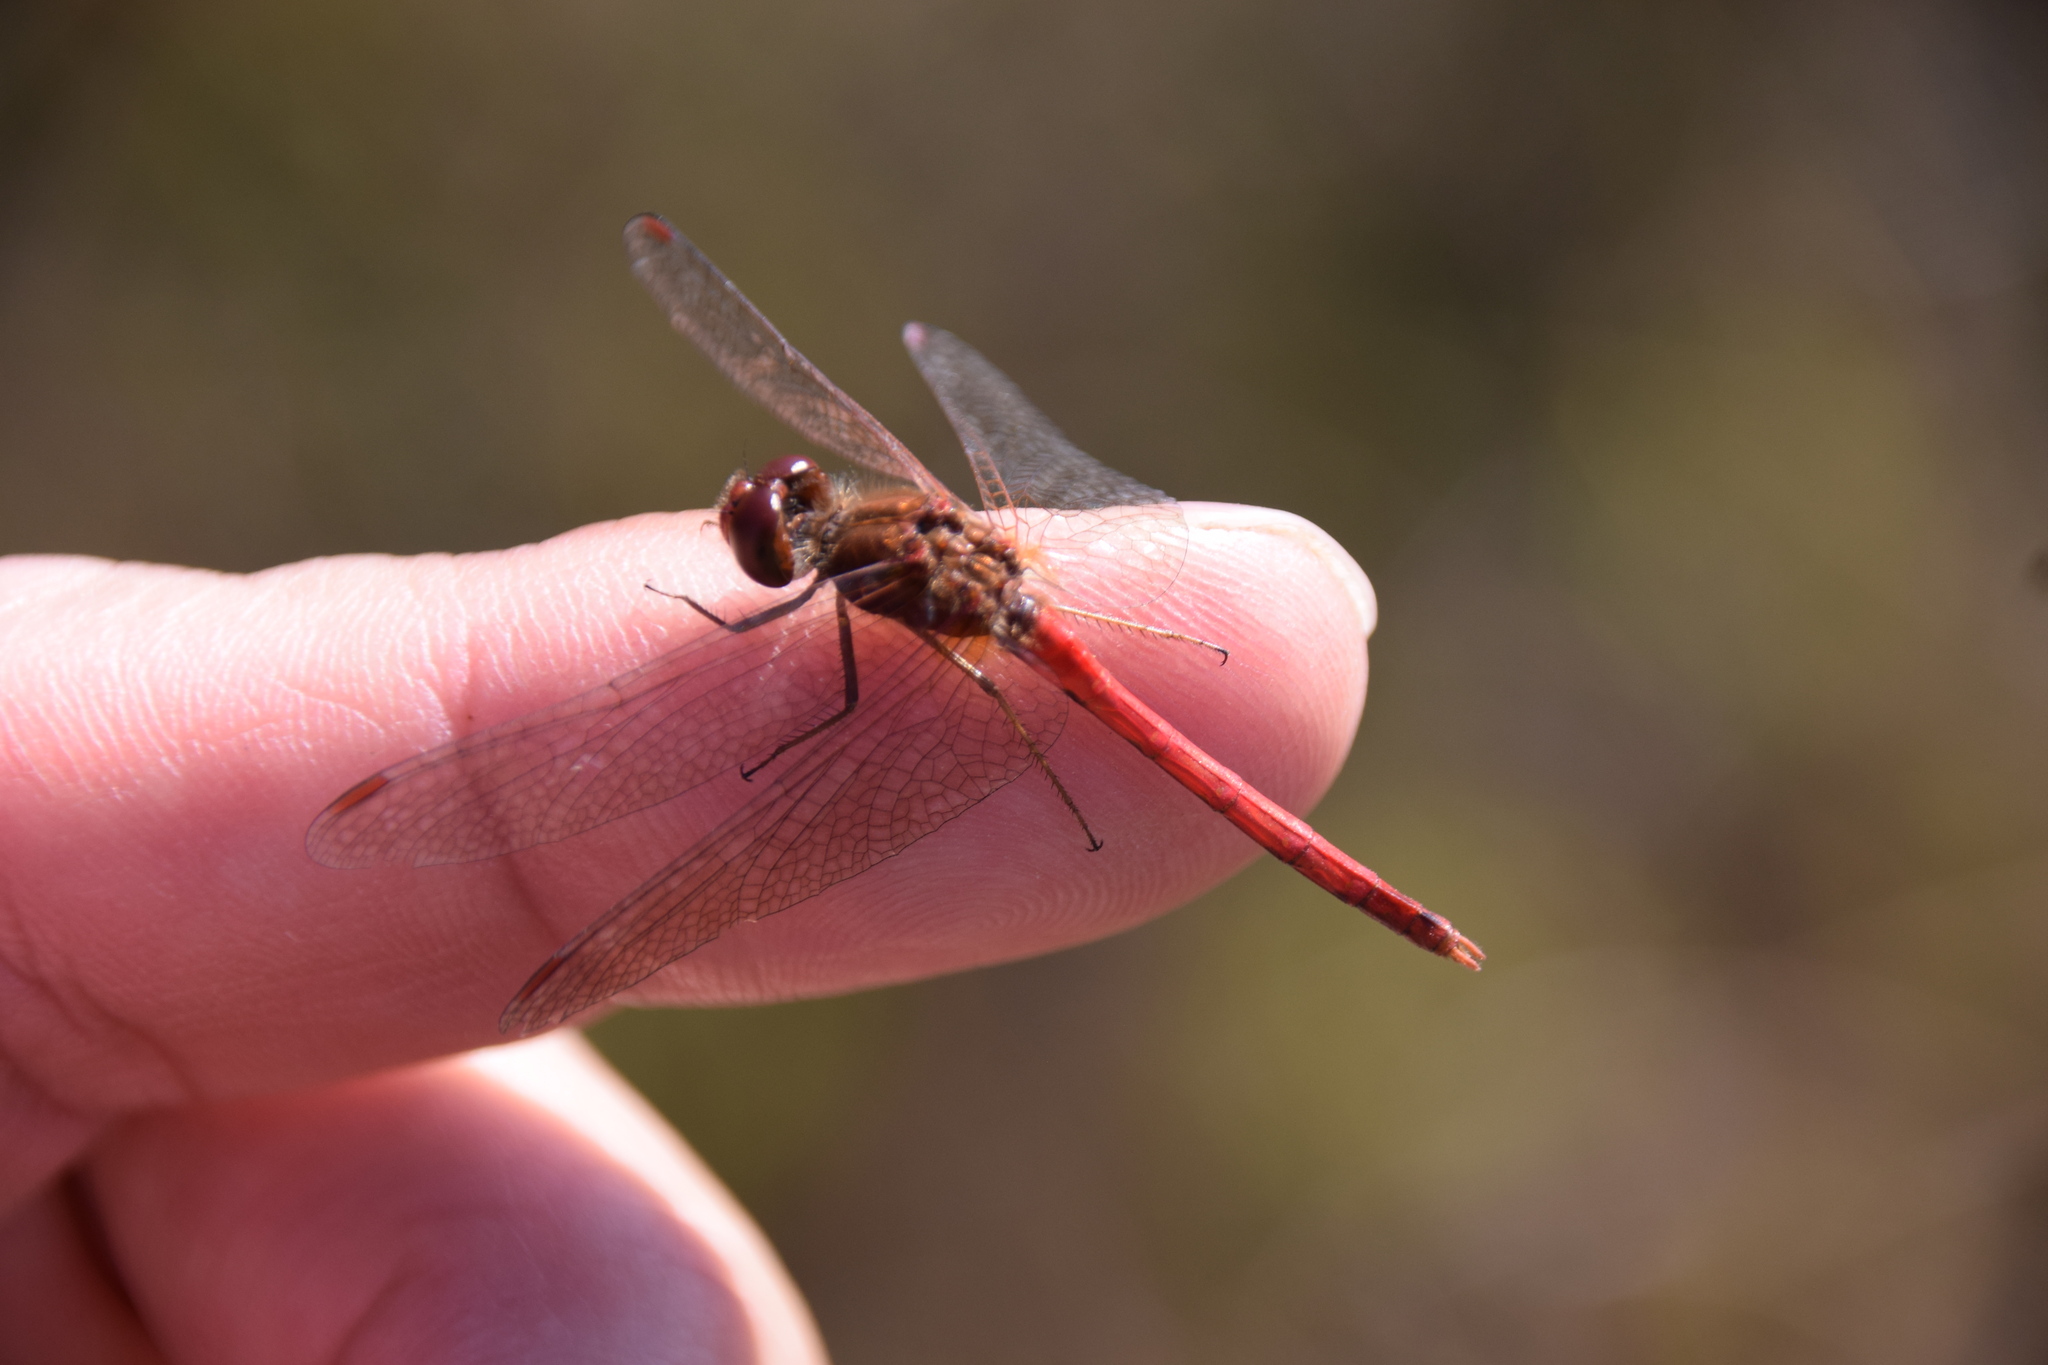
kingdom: Animalia
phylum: Arthropoda
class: Insecta
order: Odonata
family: Libellulidae
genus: Sympetrum
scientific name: Sympetrum vicinum
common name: Autumn meadowhawk
